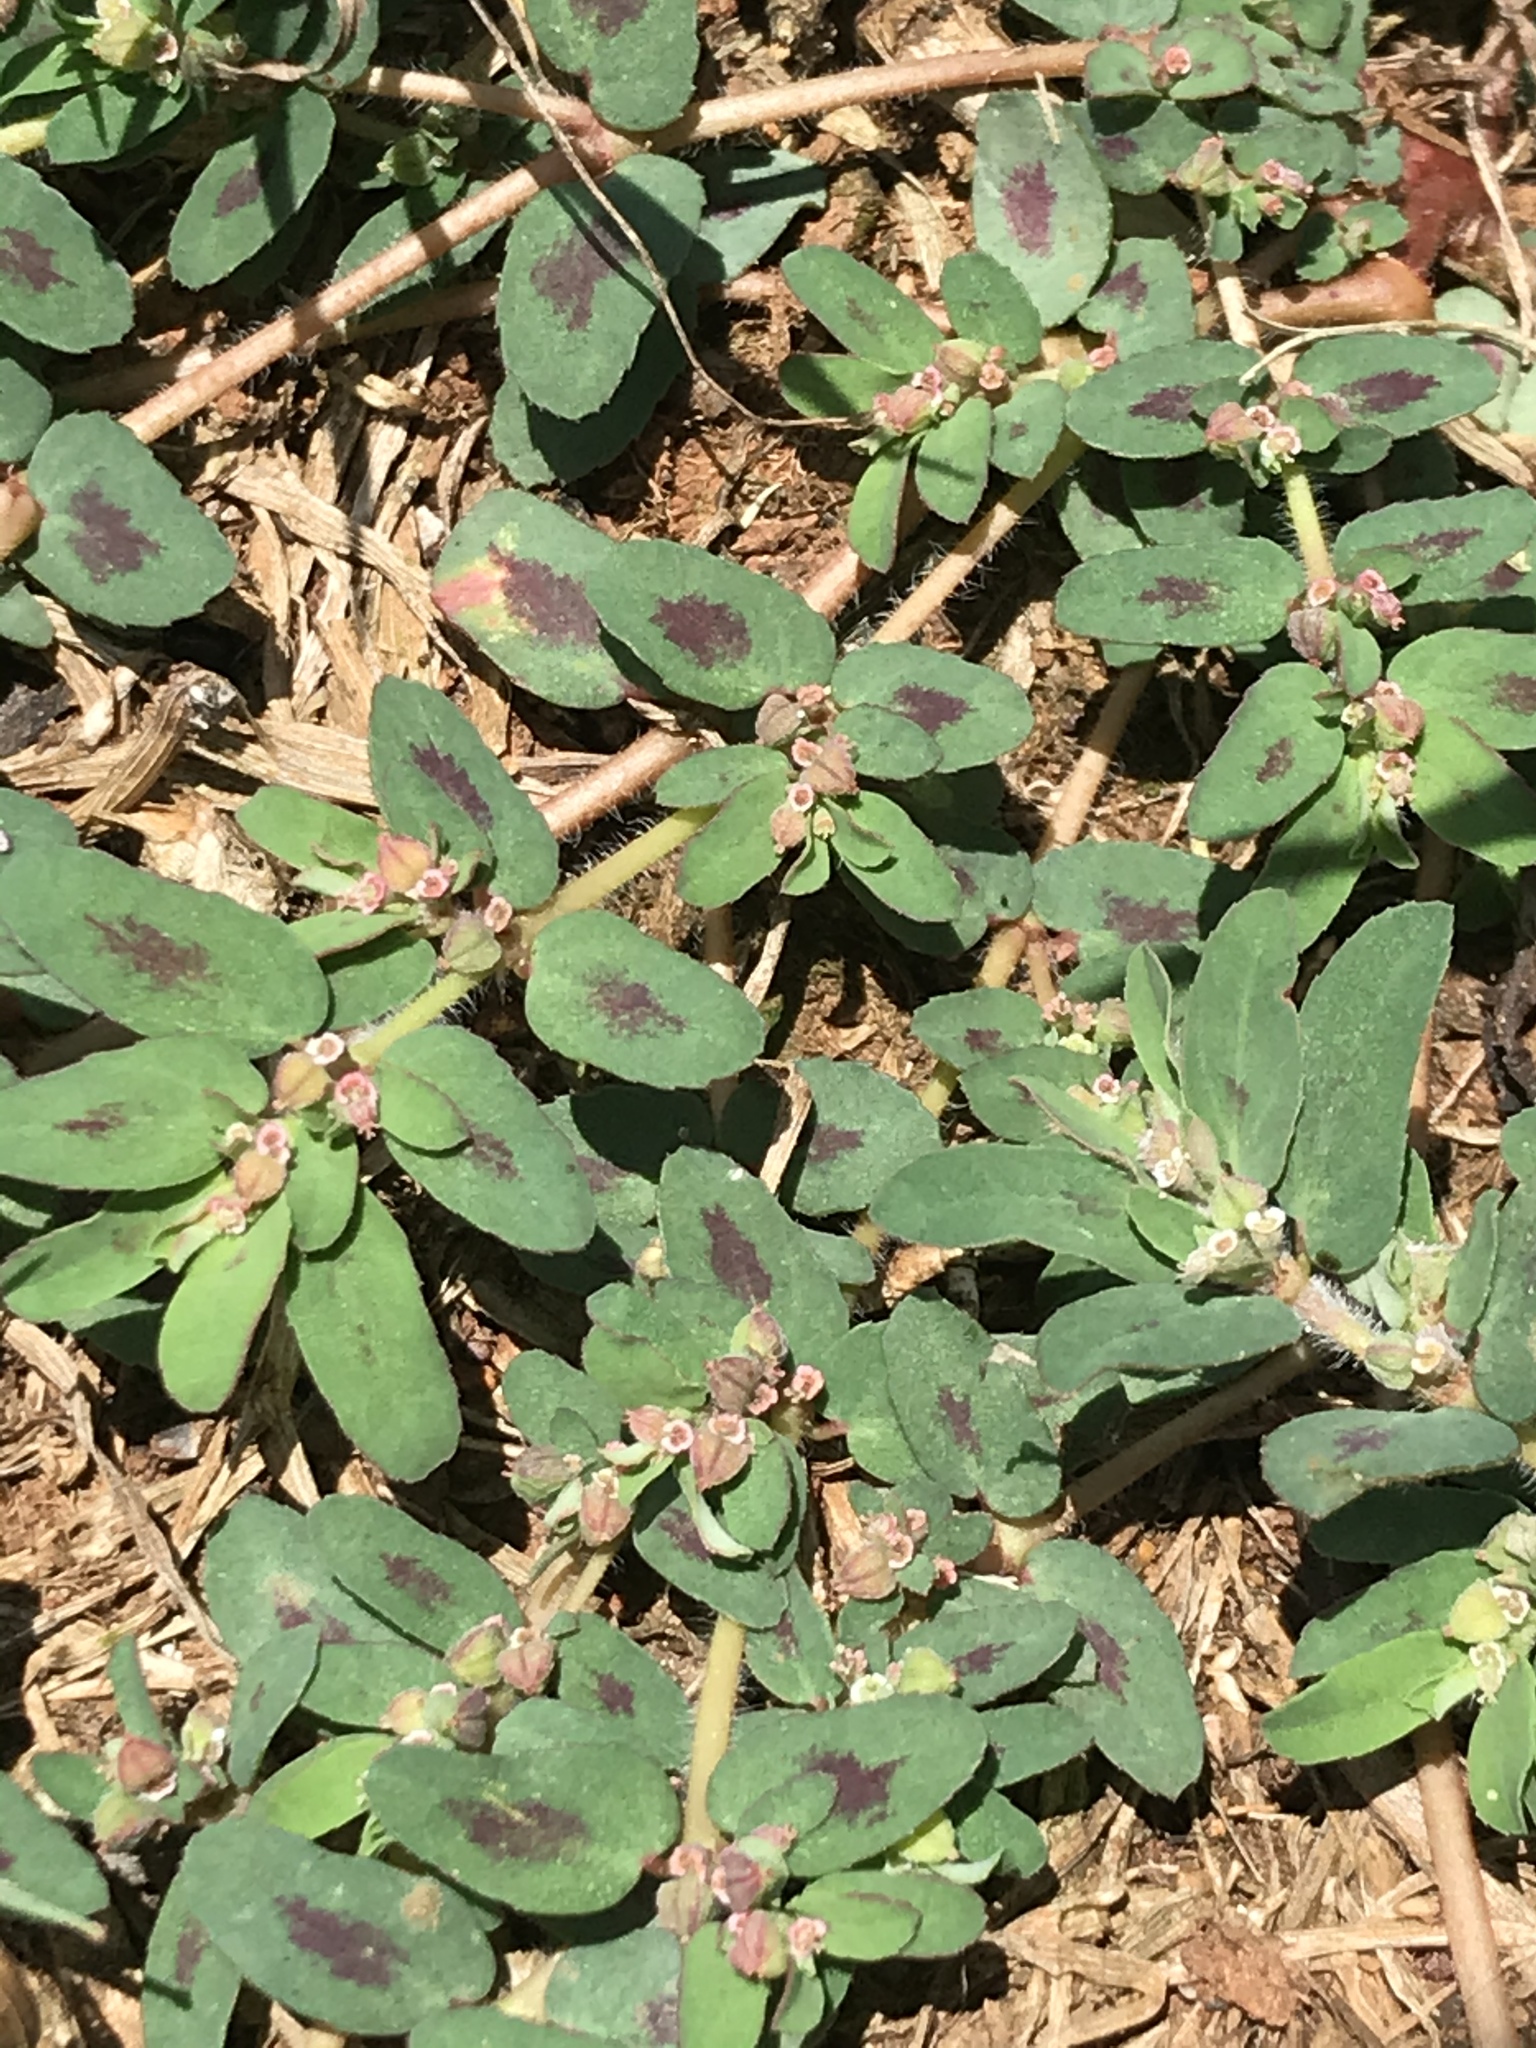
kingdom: Plantae
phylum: Tracheophyta
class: Magnoliopsida
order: Malpighiales
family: Euphorbiaceae
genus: Euphorbia
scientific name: Euphorbia maculata
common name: Spotted spurge
